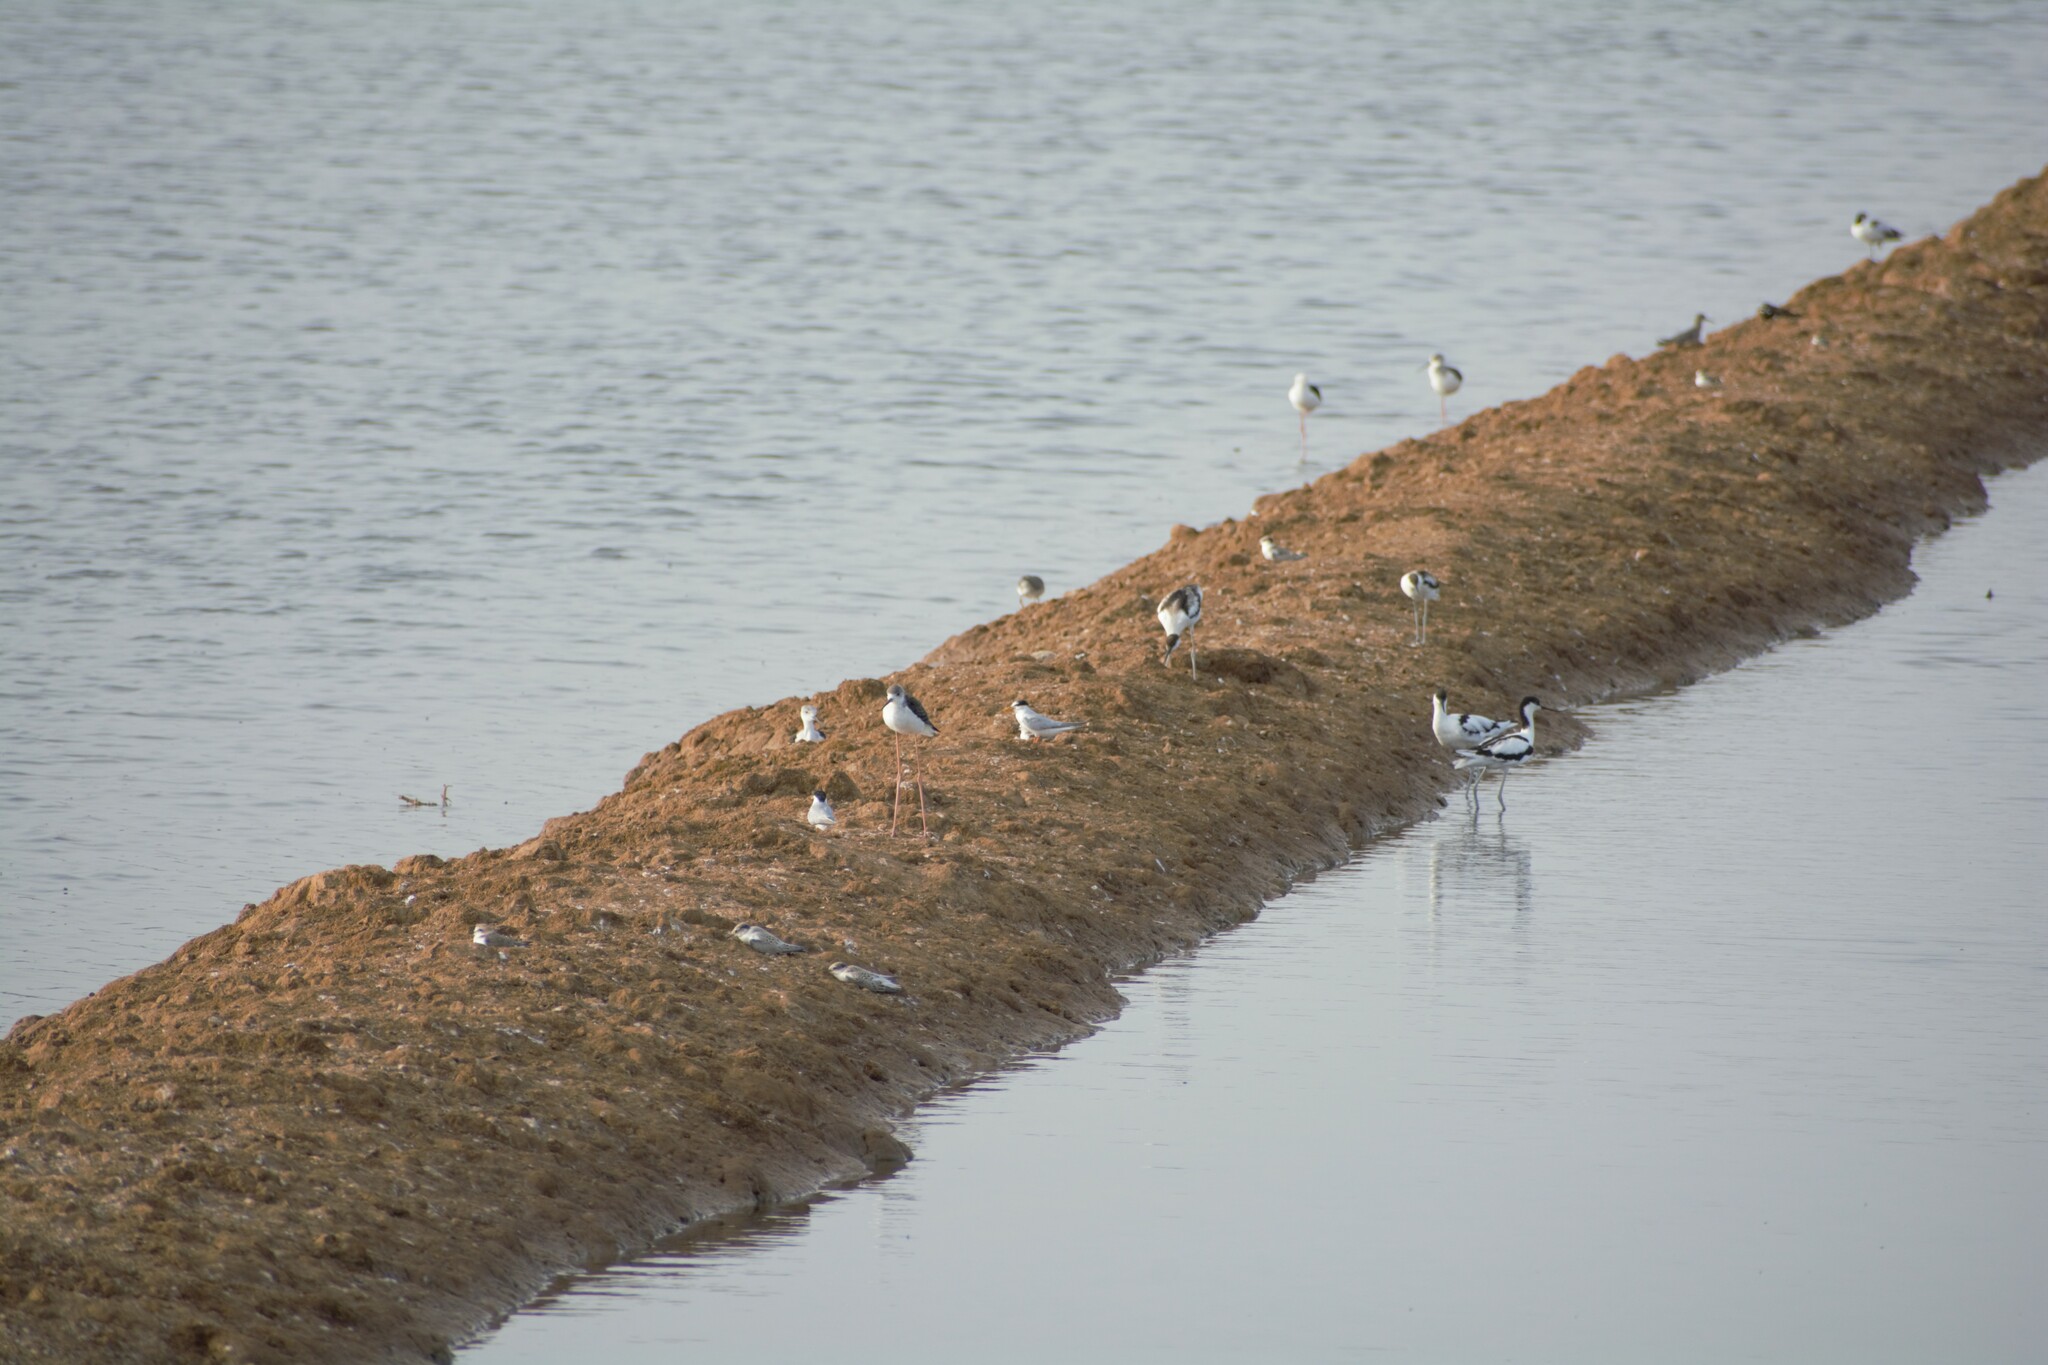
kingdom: Animalia
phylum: Chordata
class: Aves
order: Charadriiformes
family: Recurvirostridae
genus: Recurvirostra
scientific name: Recurvirostra avosetta
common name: Pied avocet
